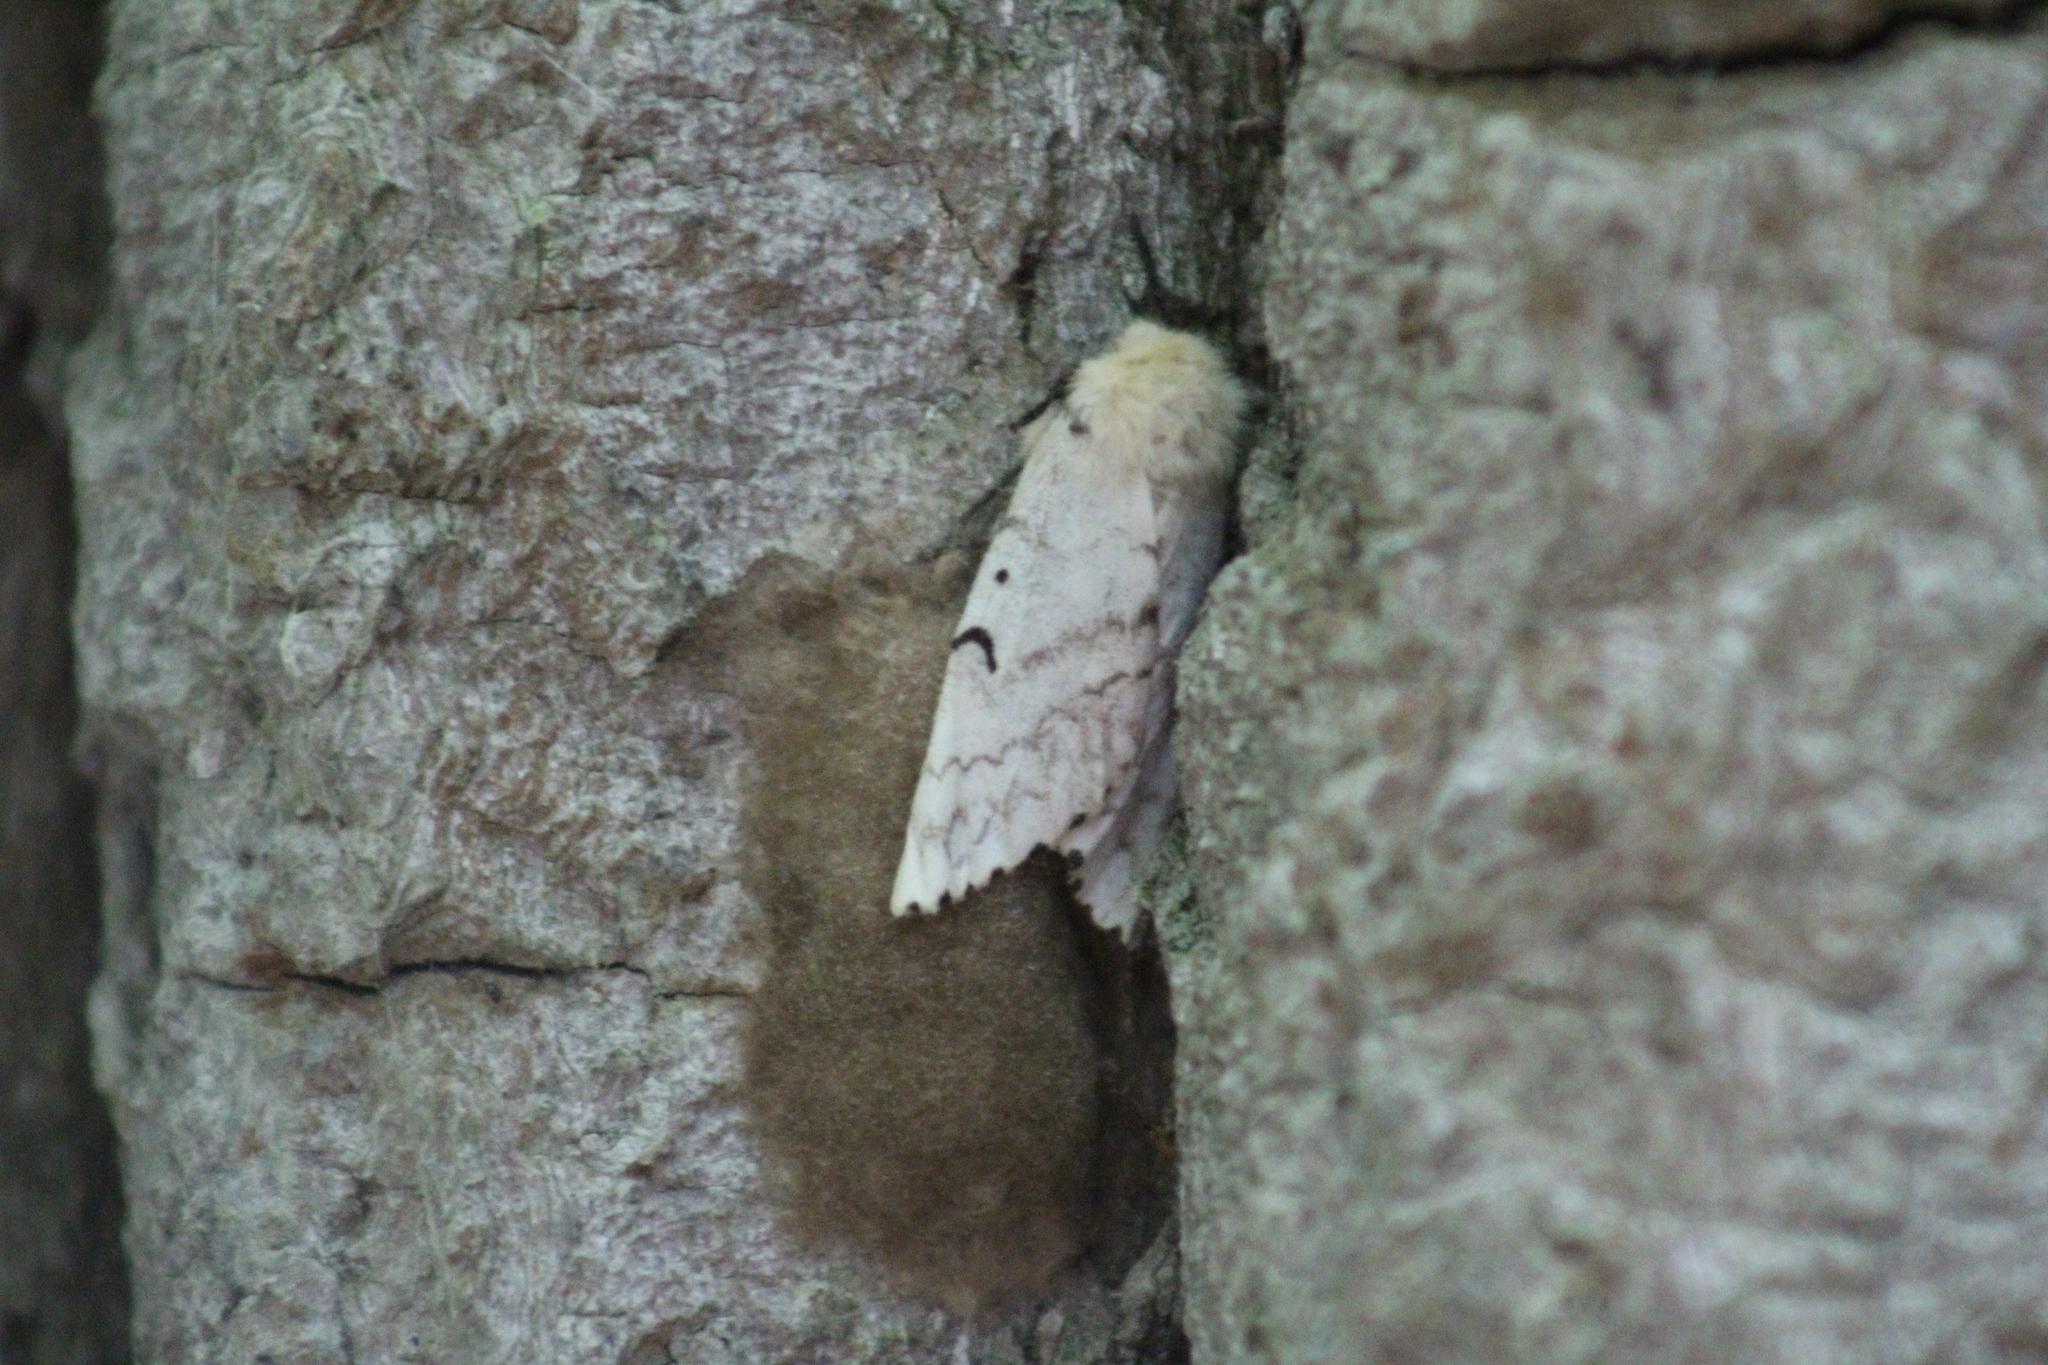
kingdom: Animalia
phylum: Arthropoda
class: Insecta
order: Lepidoptera
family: Erebidae
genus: Lymantria
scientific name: Lymantria dispar
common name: Gypsy moth
